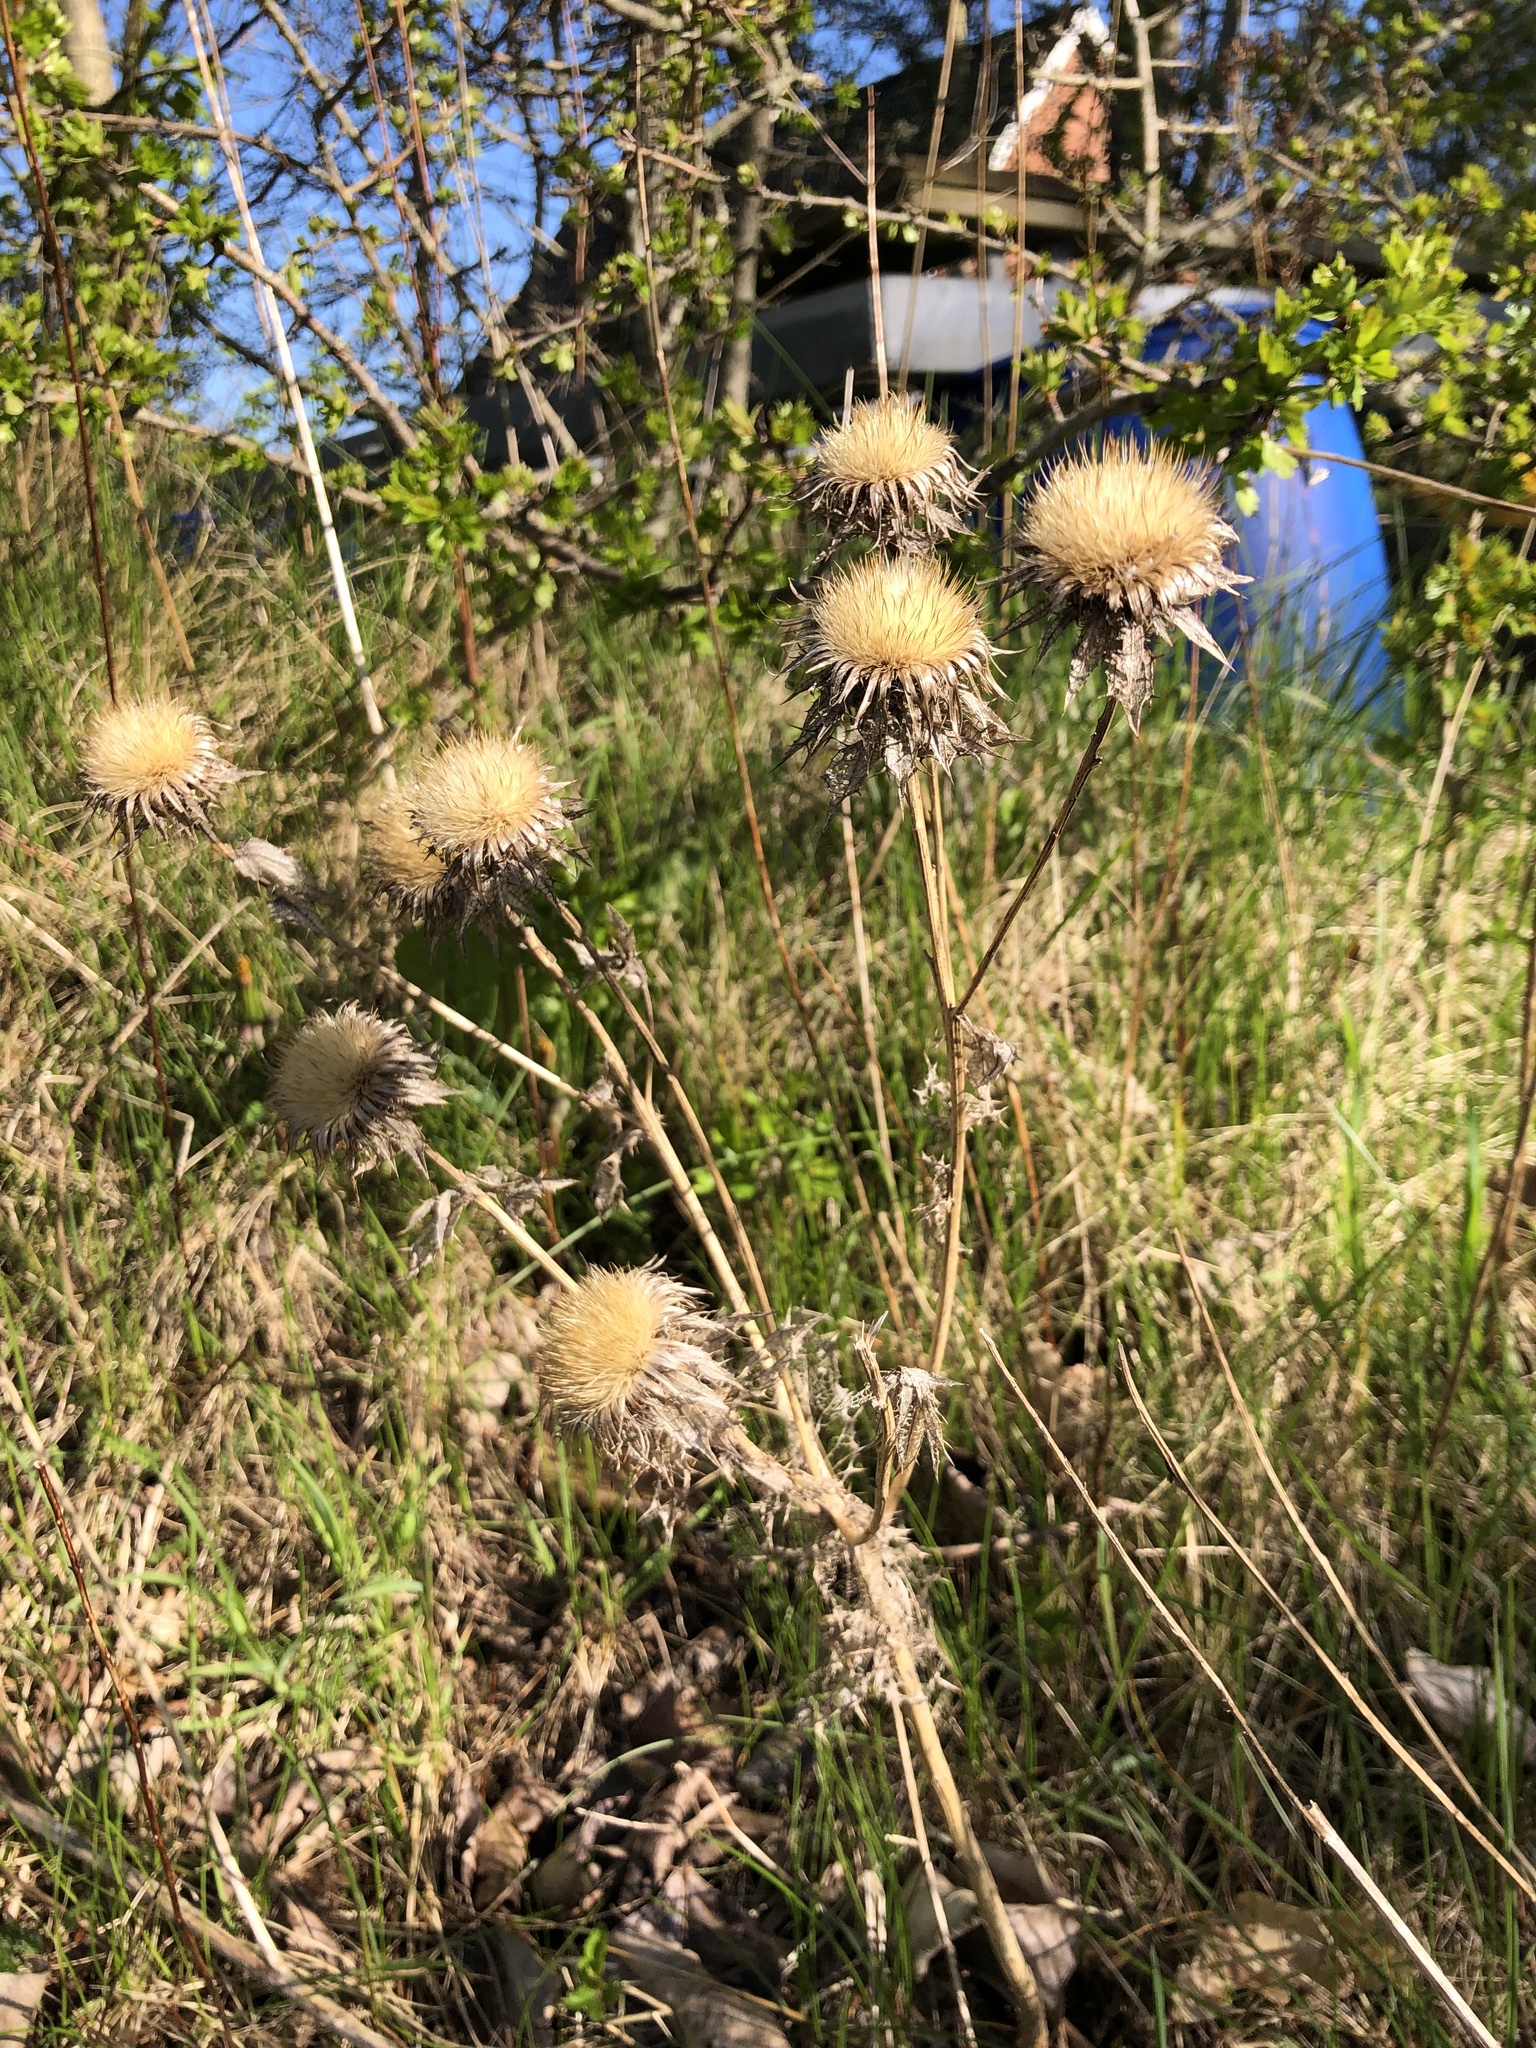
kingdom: Plantae
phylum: Tracheophyta
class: Magnoliopsida
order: Asterales
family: Asteraceae
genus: Carlina
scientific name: Carlina vulgaris
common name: Carline thistle
